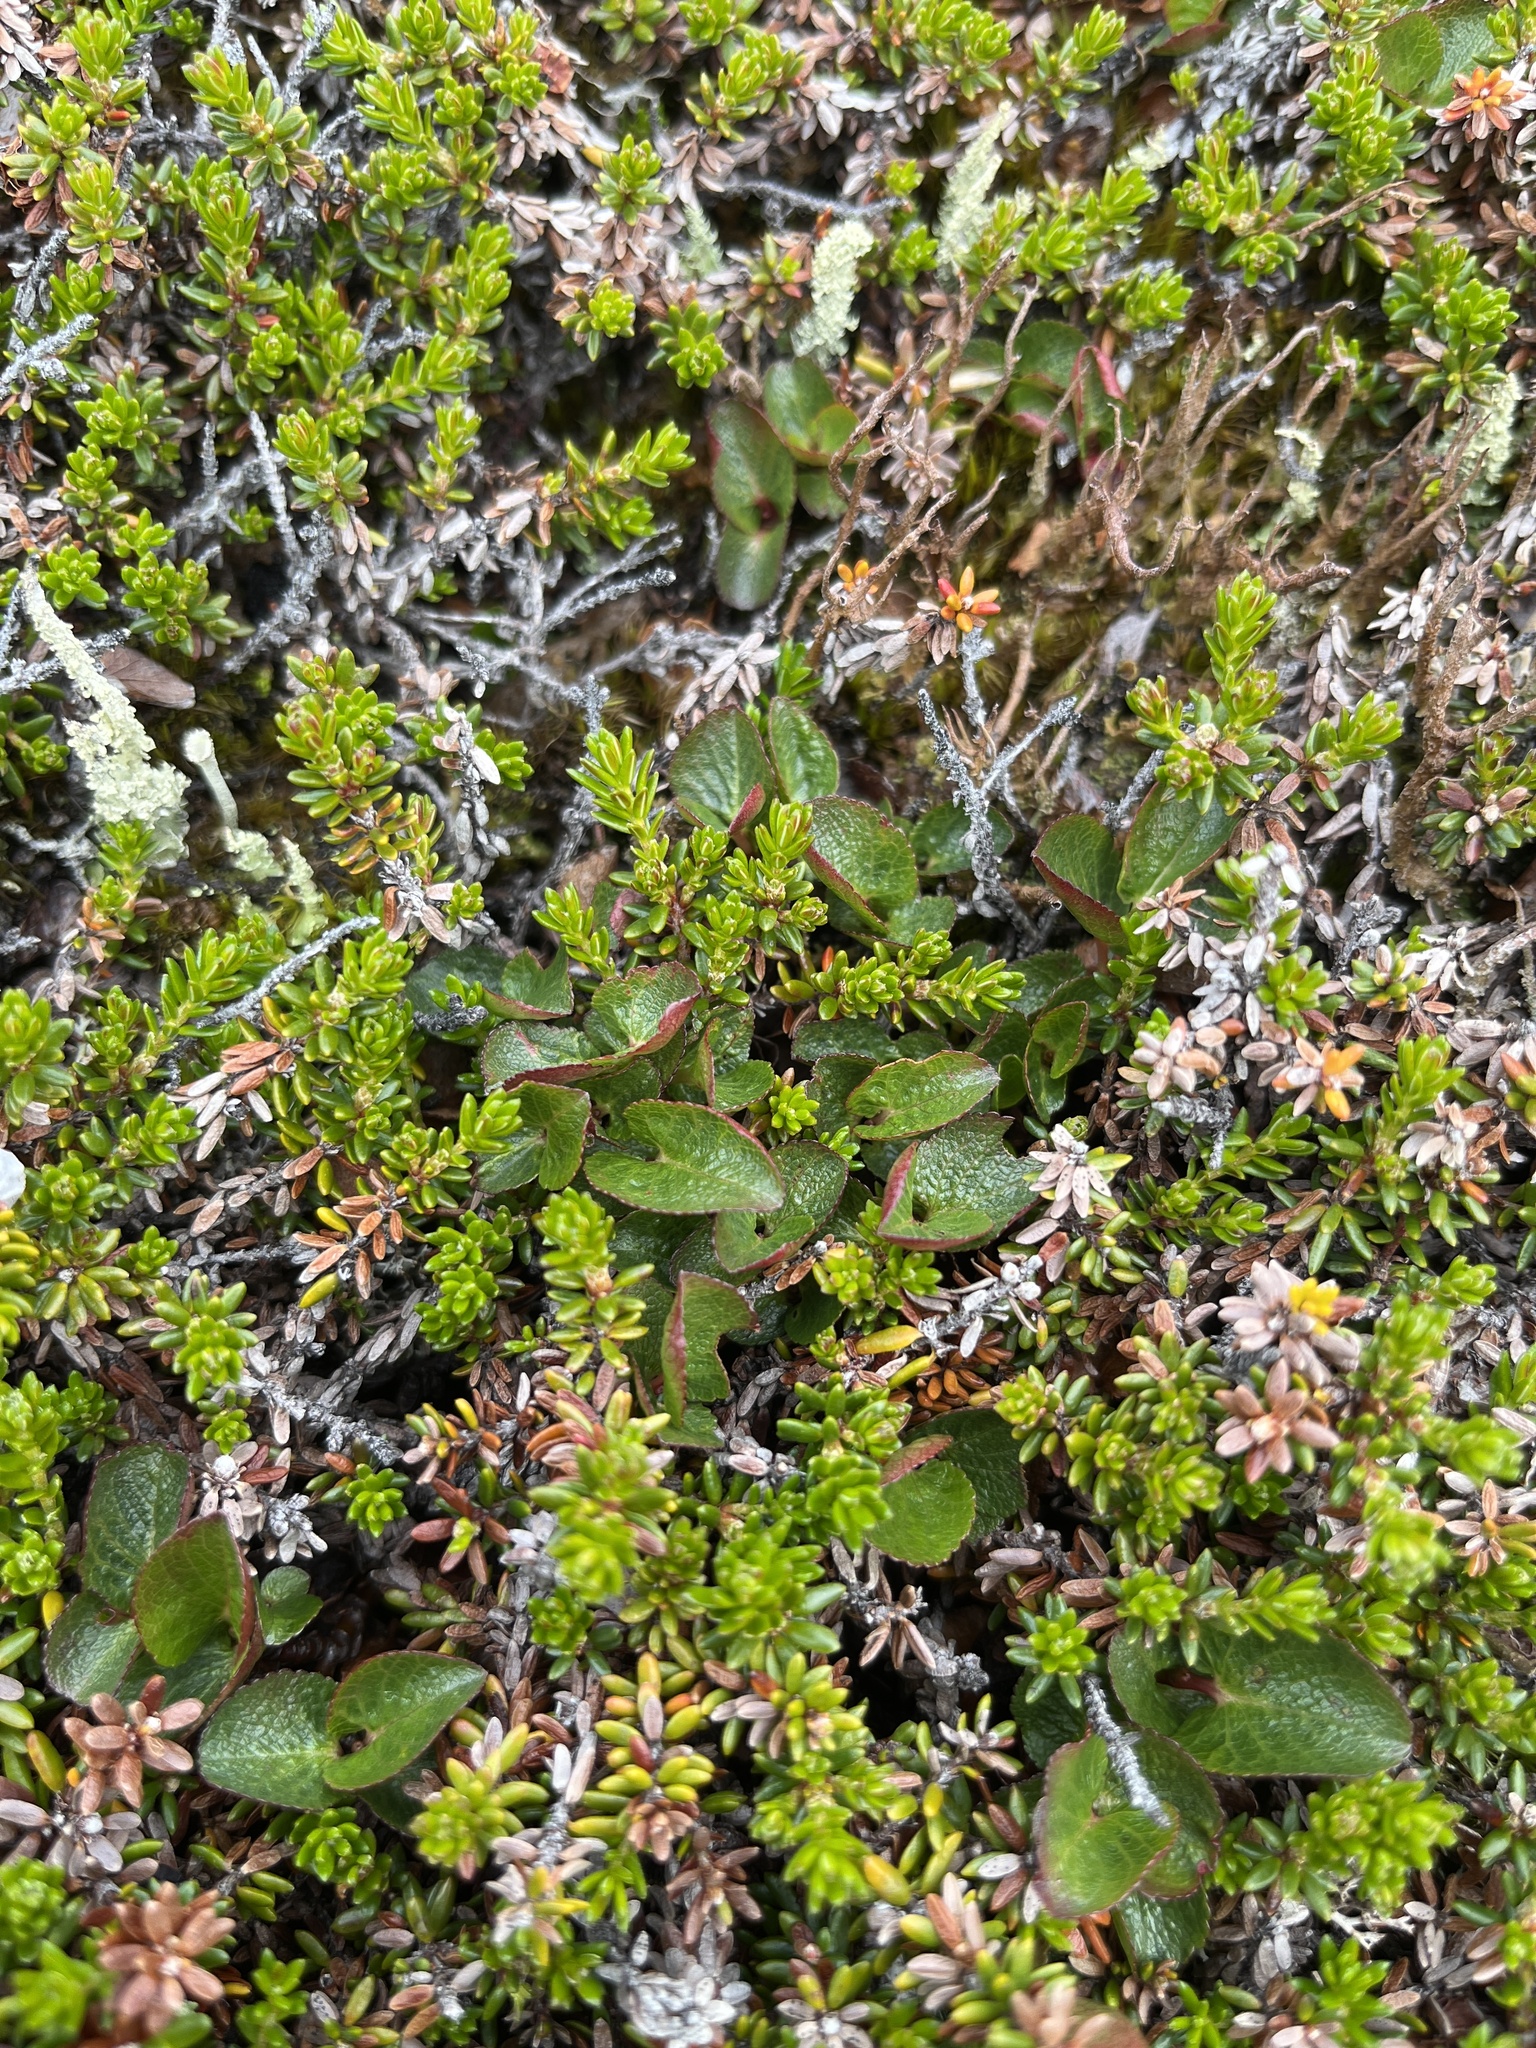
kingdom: Plantae
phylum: Tracheophyta
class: Magnoliopsida
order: Malpighiales
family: Salicaceae
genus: Salix
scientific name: Salix herbacea
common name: Dwarf willow
